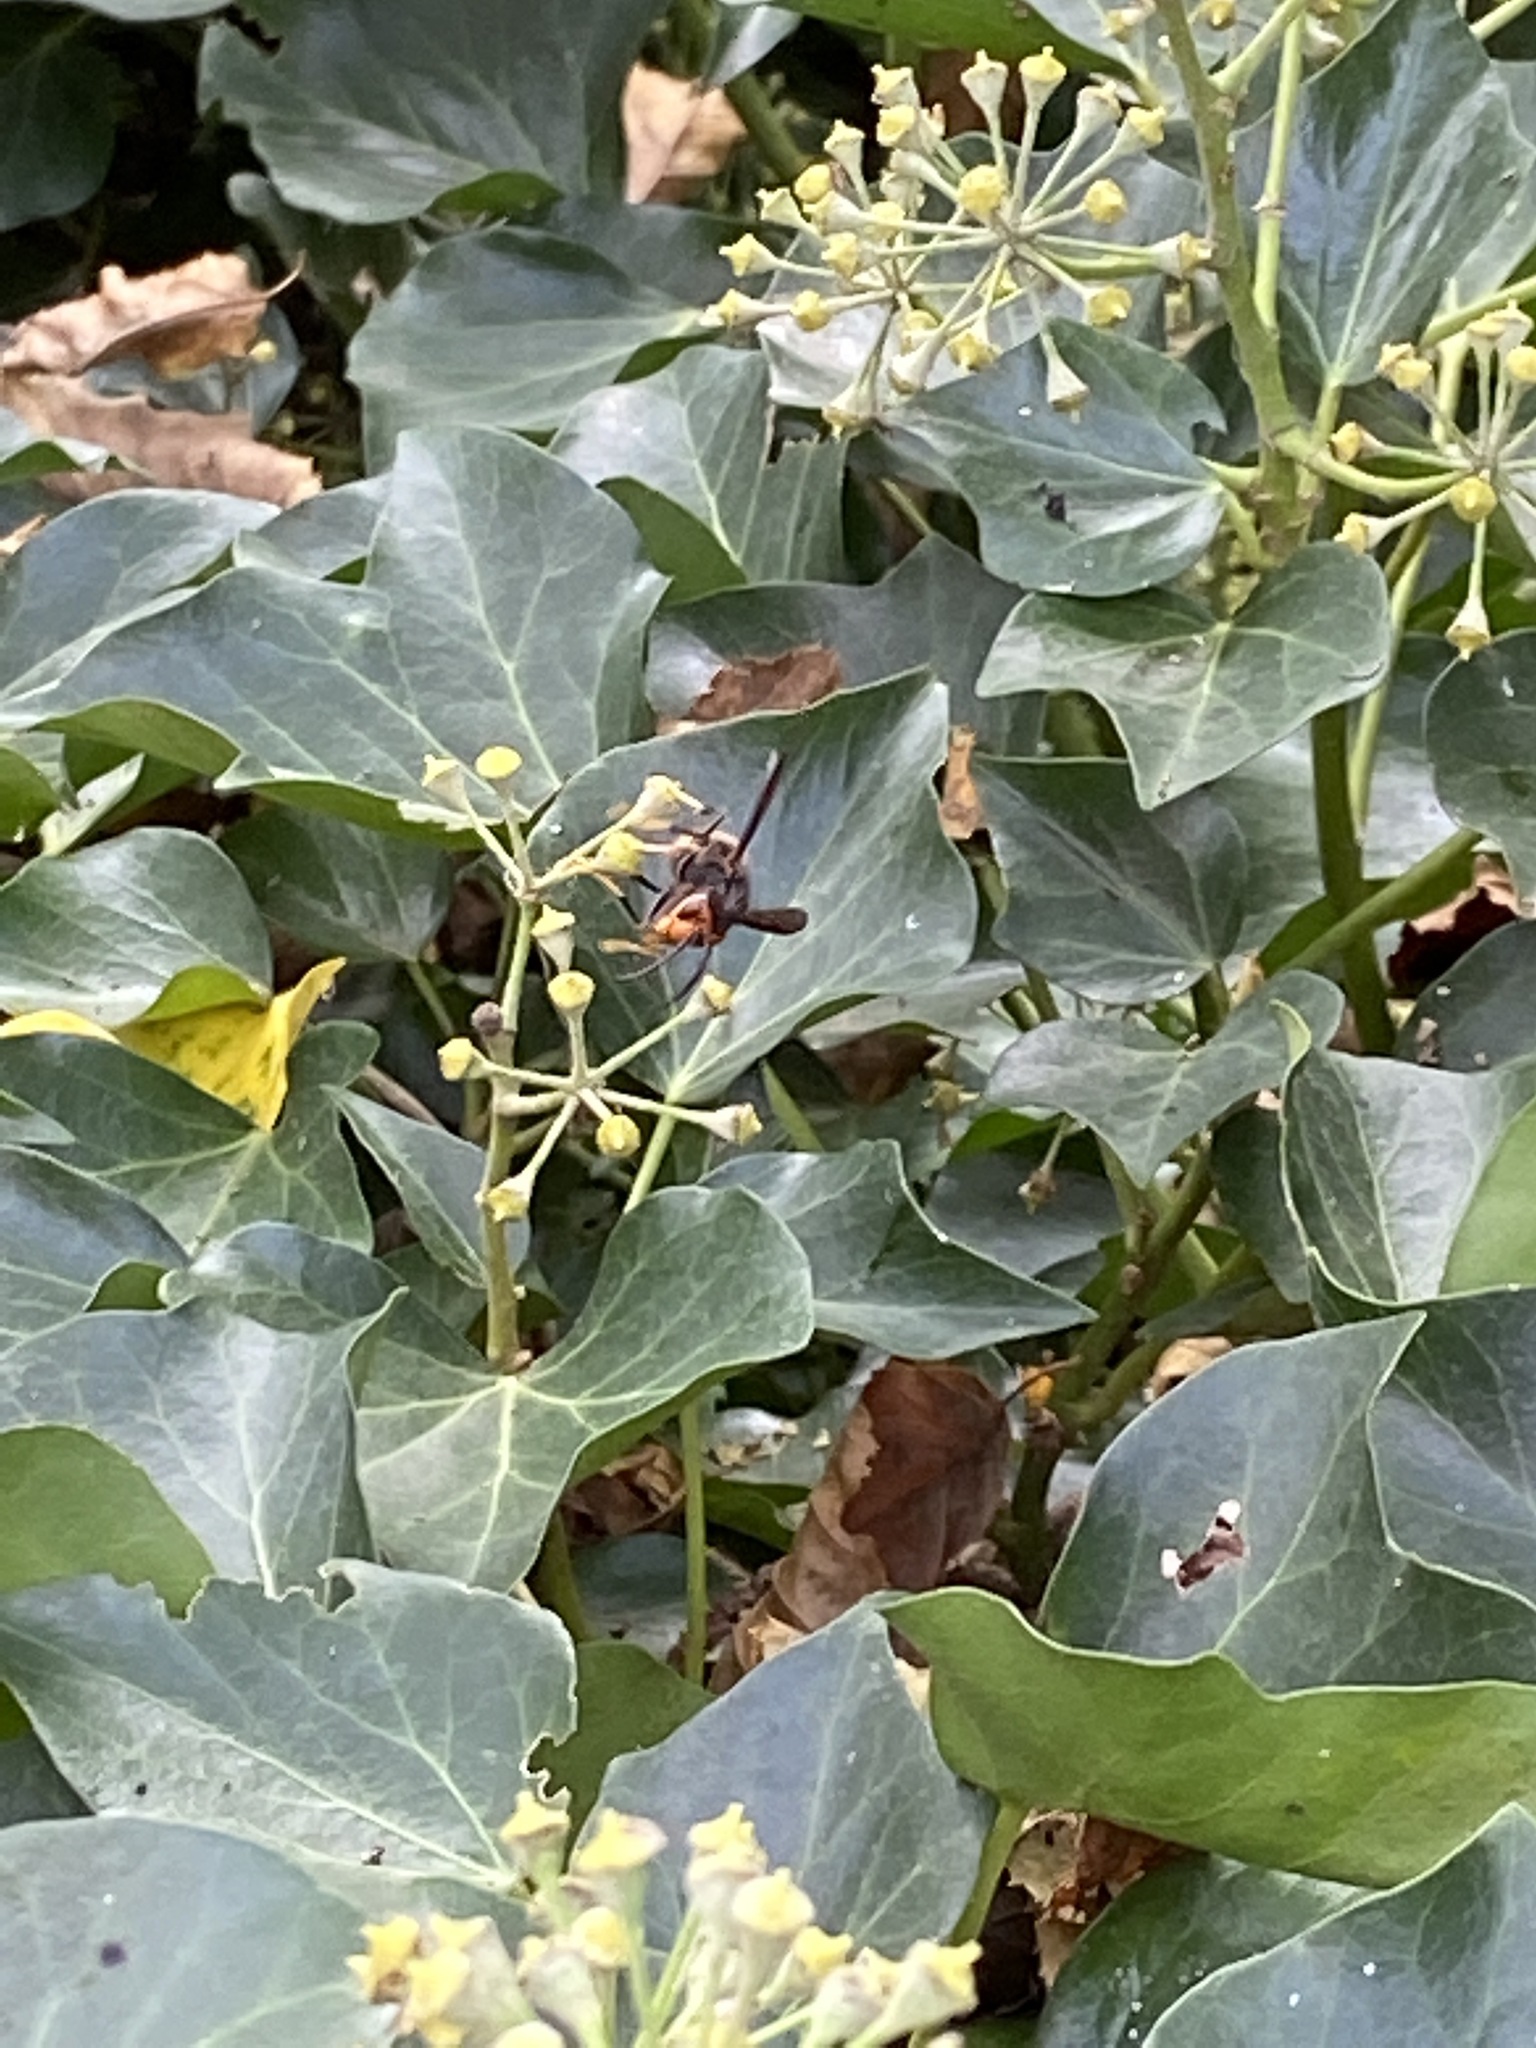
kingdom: Animalia
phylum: Arthropoda
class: Insecta
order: Hymenoptera
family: Vespidae
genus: Vespa
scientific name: Vespa velutina
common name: Asian hornet
